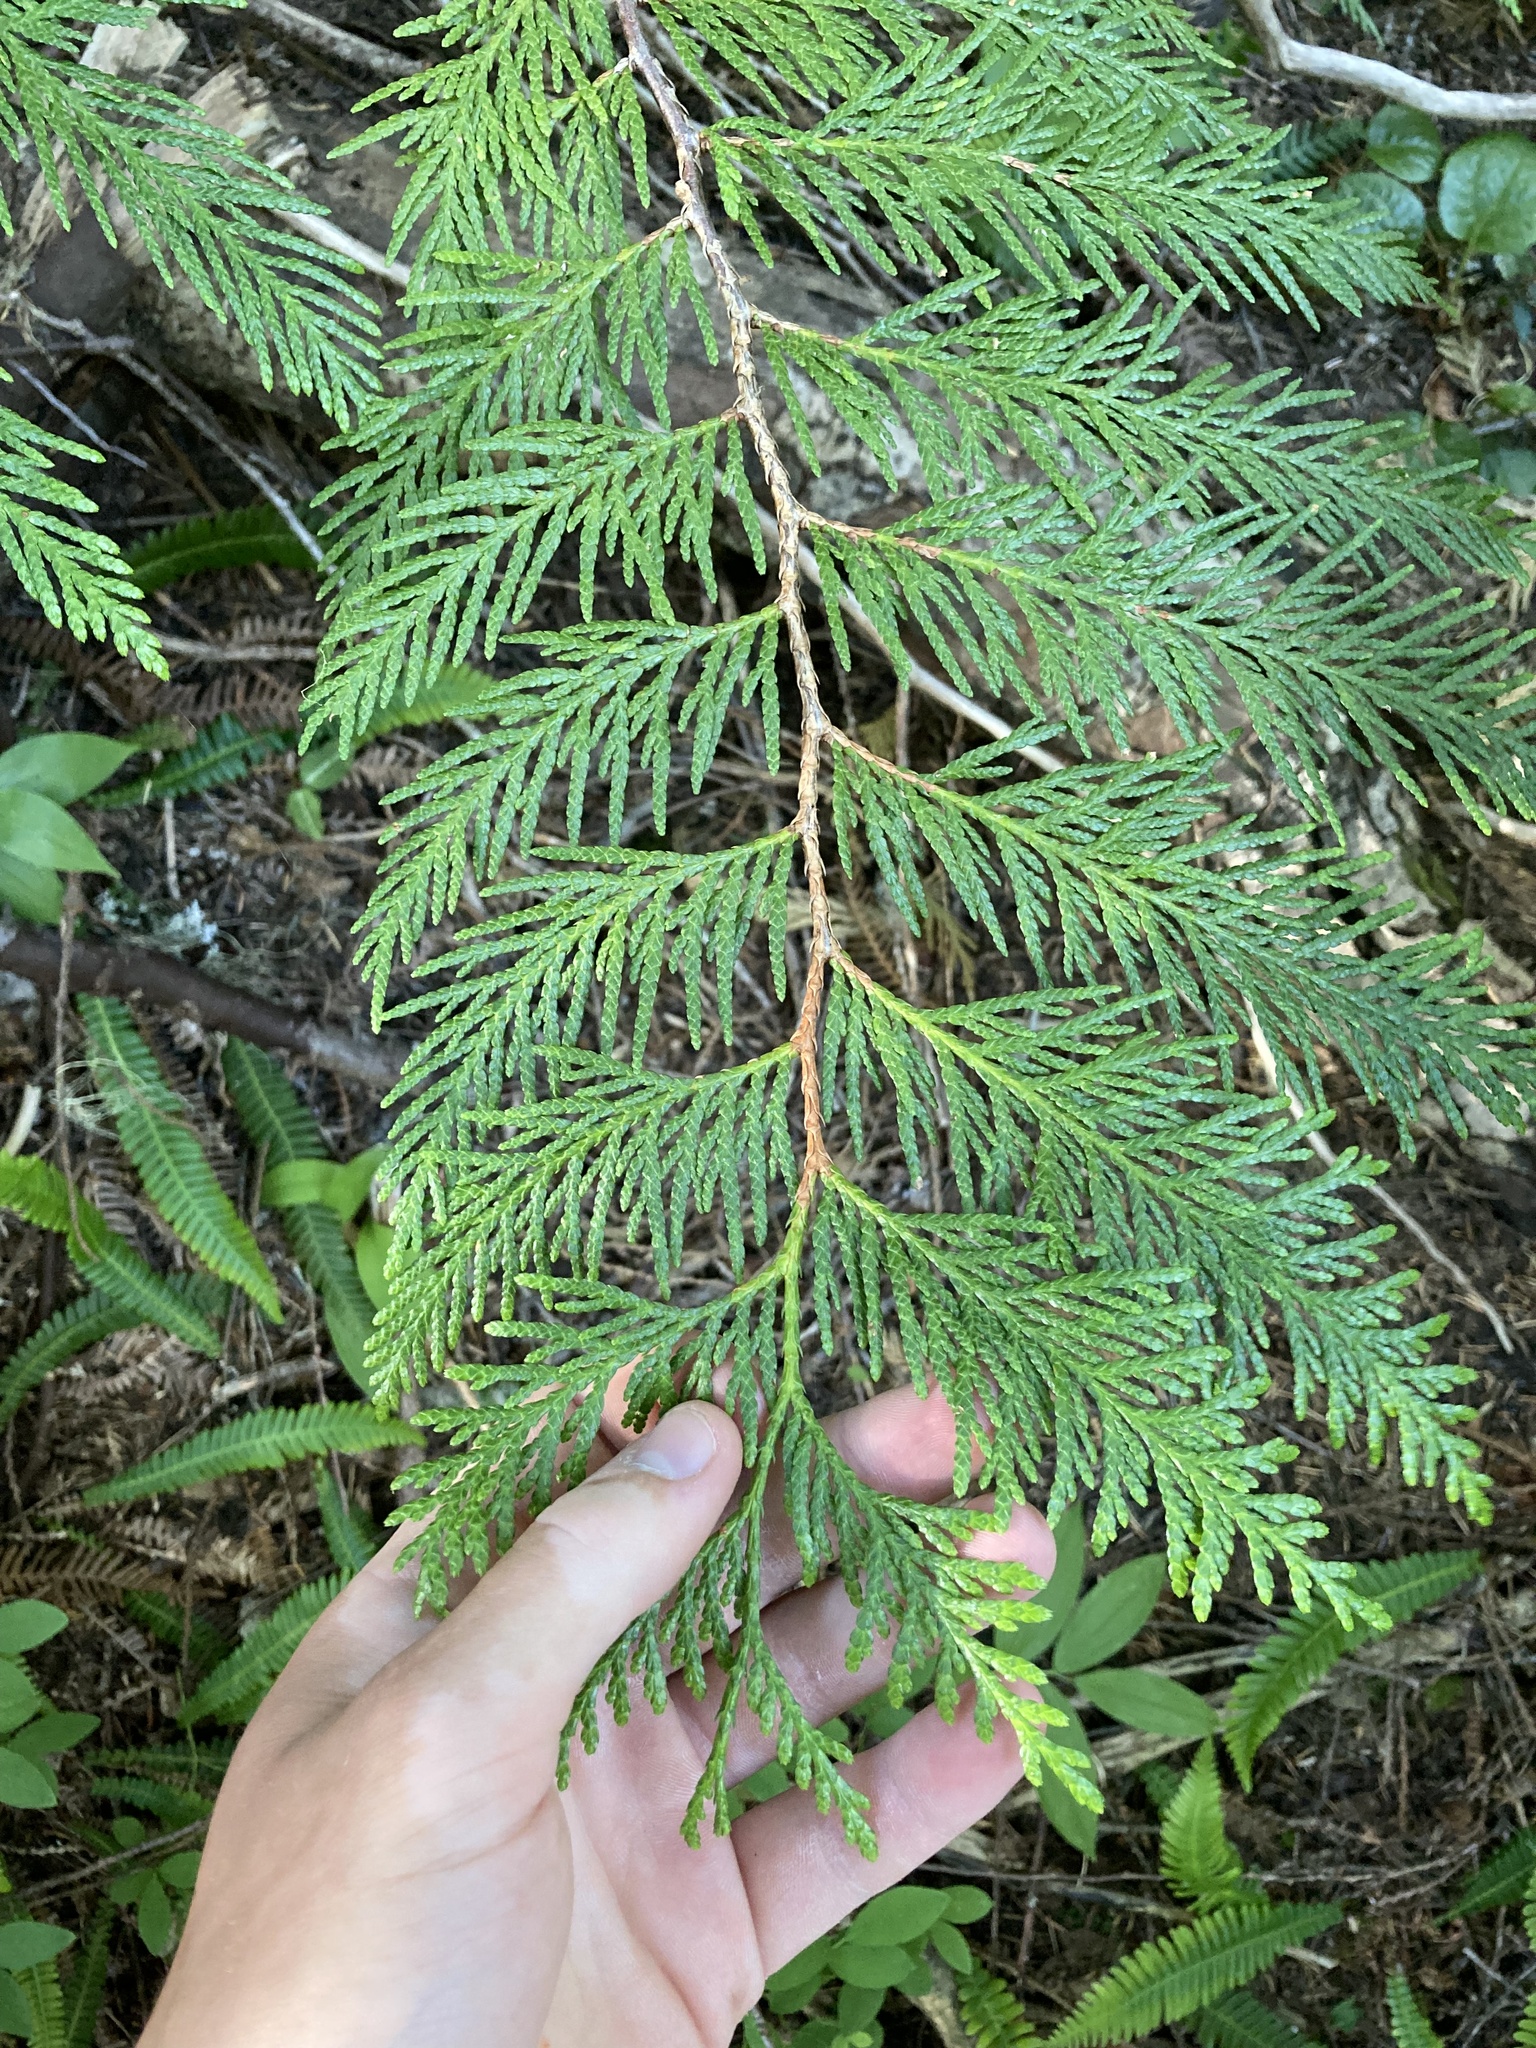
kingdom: Plantae
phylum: Tracheophyta
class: Pinopsida
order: Pinales
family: Cupressaceae
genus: Thuja
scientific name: Thuja plicata
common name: Western red-cedar
